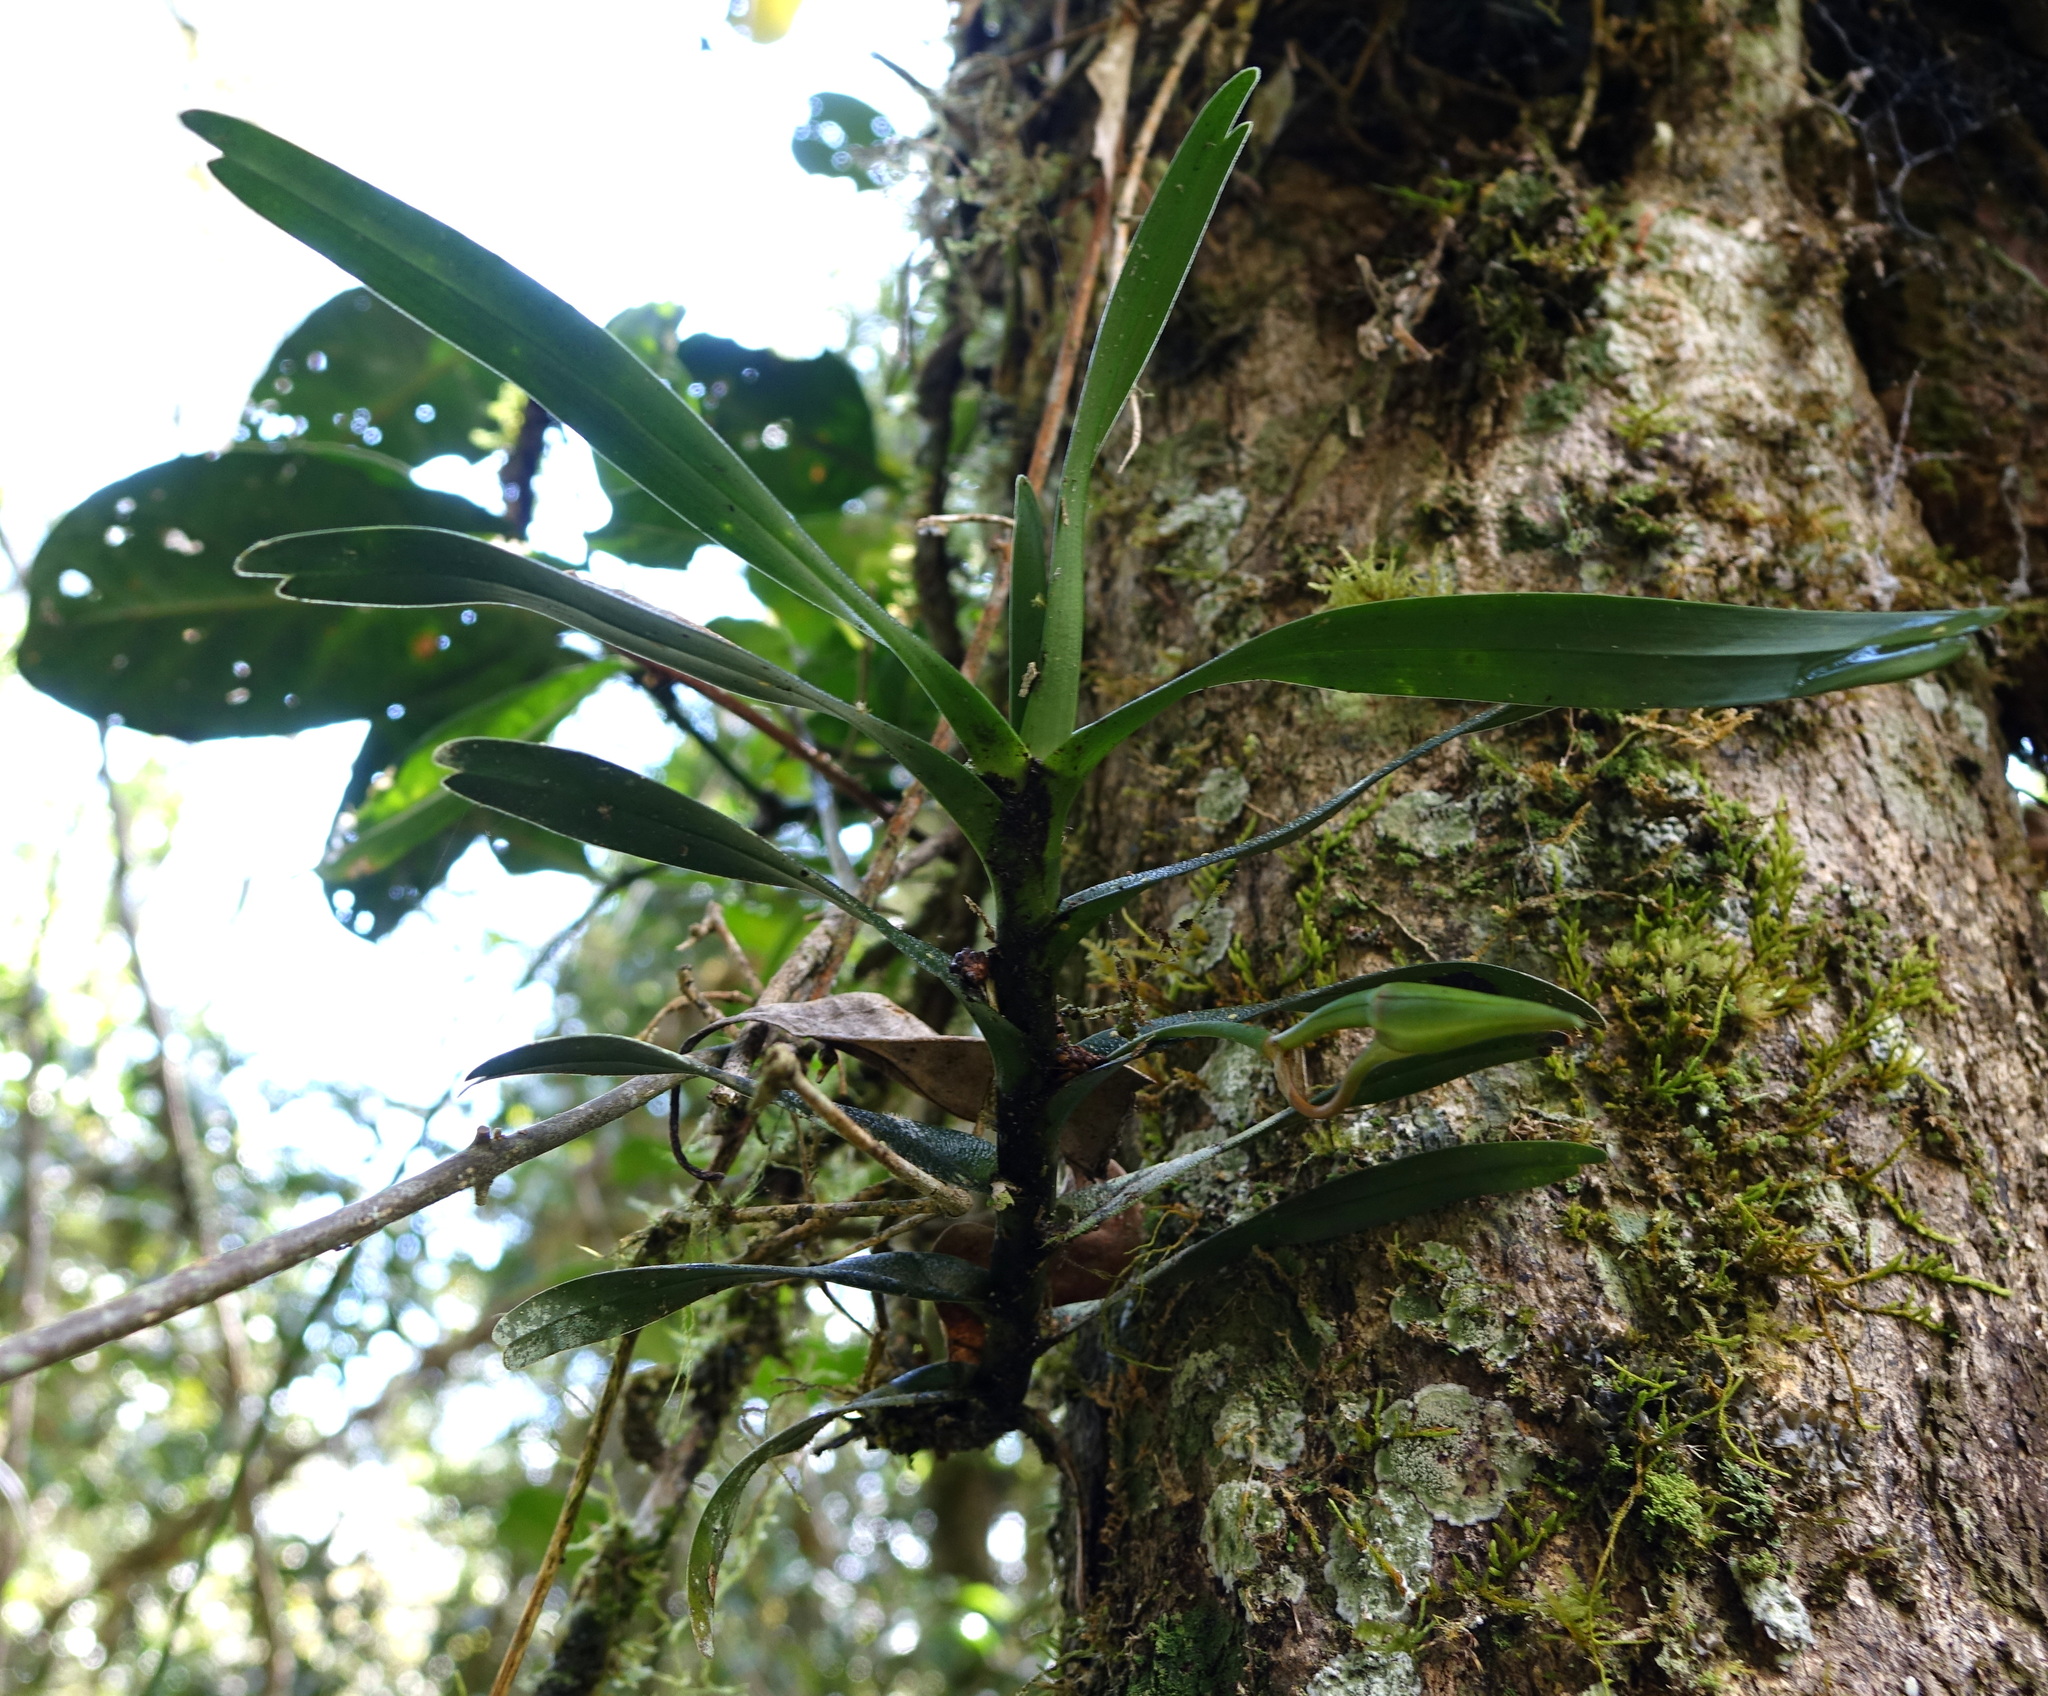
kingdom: Plantae
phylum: Tracheophyta
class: Liliopsida
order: Asparagales
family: Orchidaceae
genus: Angraecum
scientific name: Angraecum viguieri
